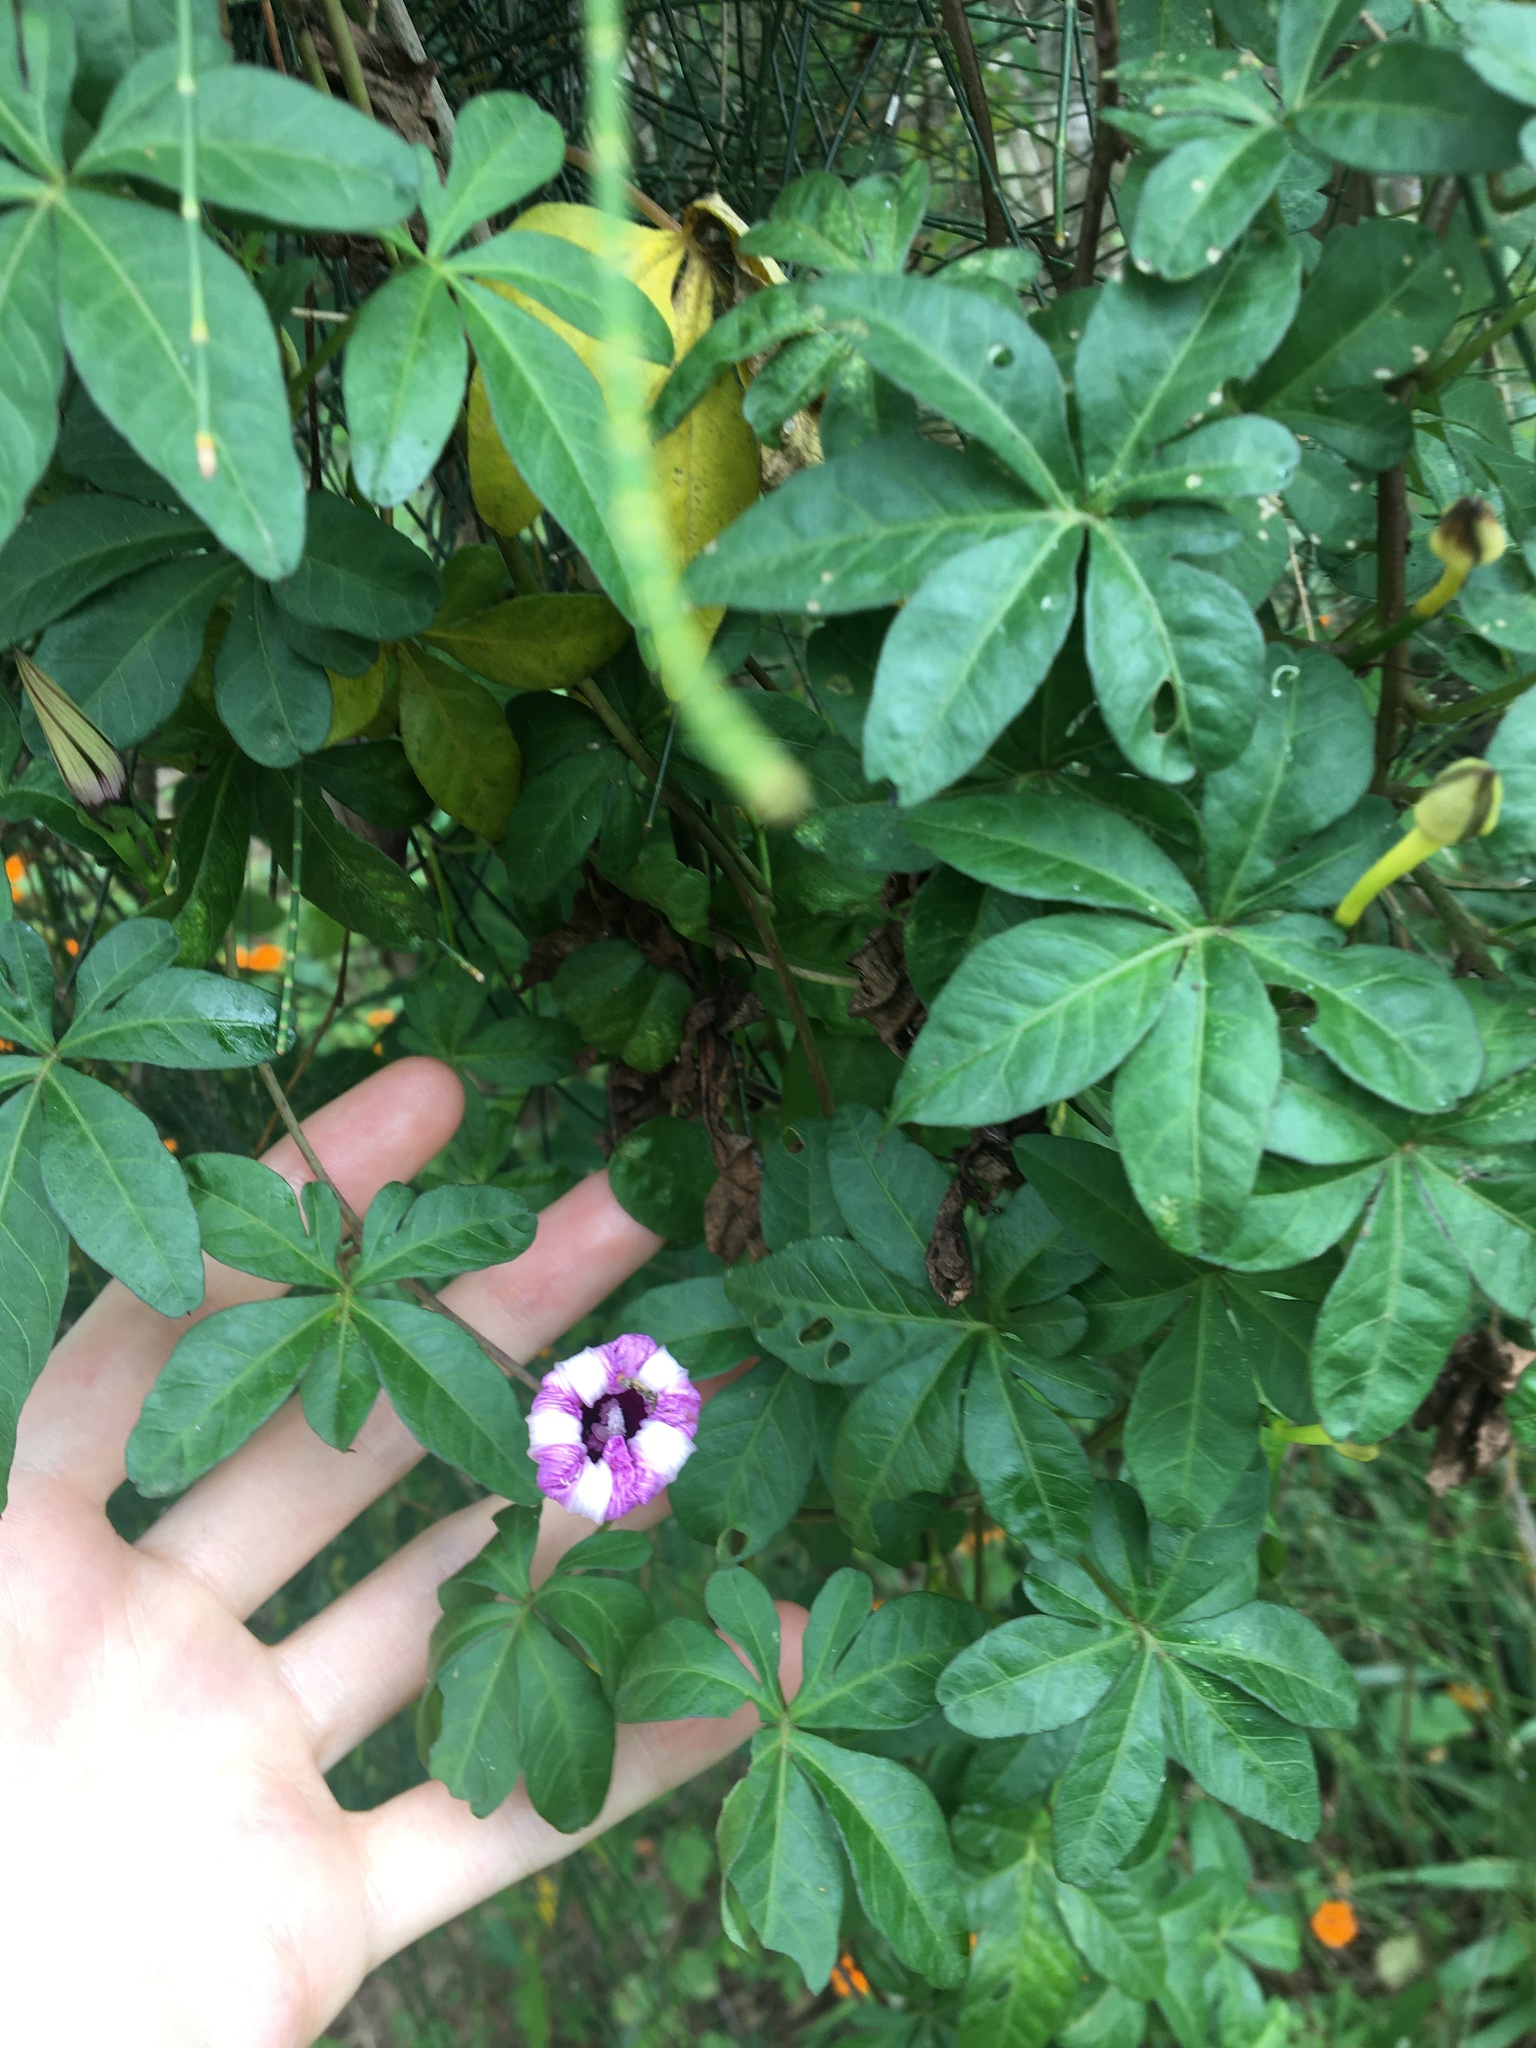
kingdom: Plantae
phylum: Tracheophyta
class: Magnoliopsida
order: Solanales
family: Convolvulaceae
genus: Ipomoea
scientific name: Ipomoea cairica
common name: Mile a minute vine
